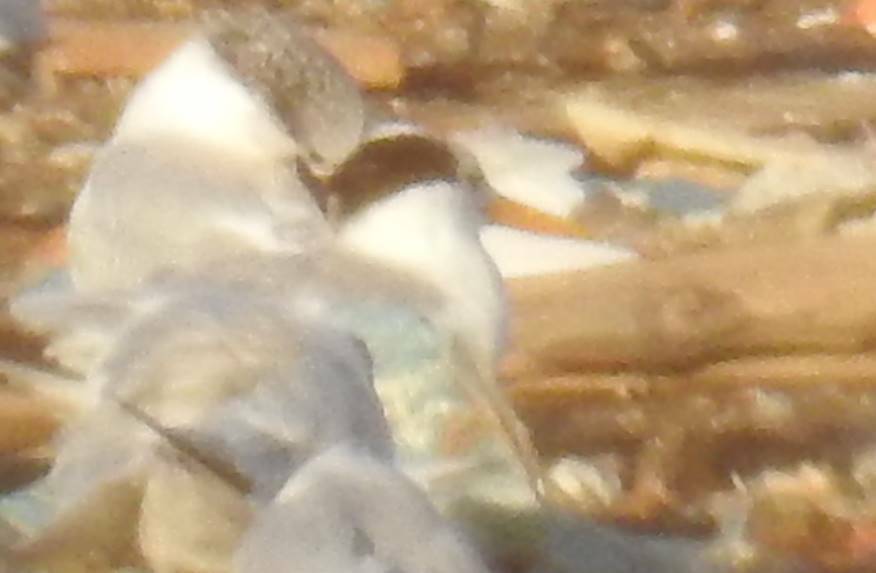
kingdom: Animalia
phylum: Chordata
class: Aves
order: Charadriiformes
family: Laridae
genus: Thalasseus
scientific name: Thalasseus bengalensis
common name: Lesser crested tern
